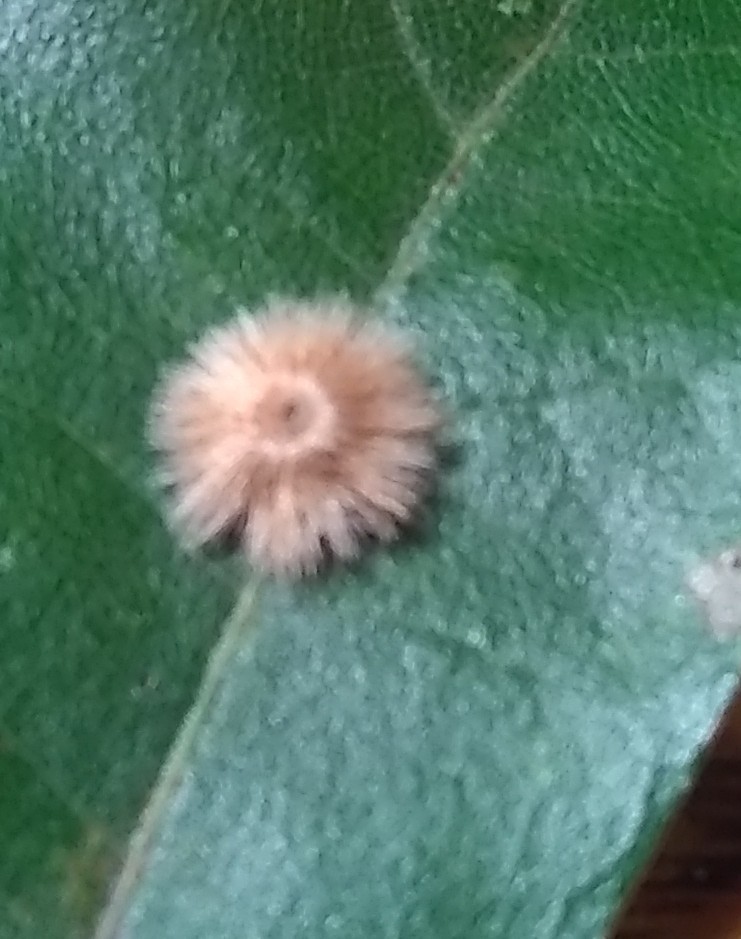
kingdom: Animalia
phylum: Arthropoda
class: Insecta
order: Hymenoptera
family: Cynipidae
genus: Callirhytis
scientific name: Callirhytis
